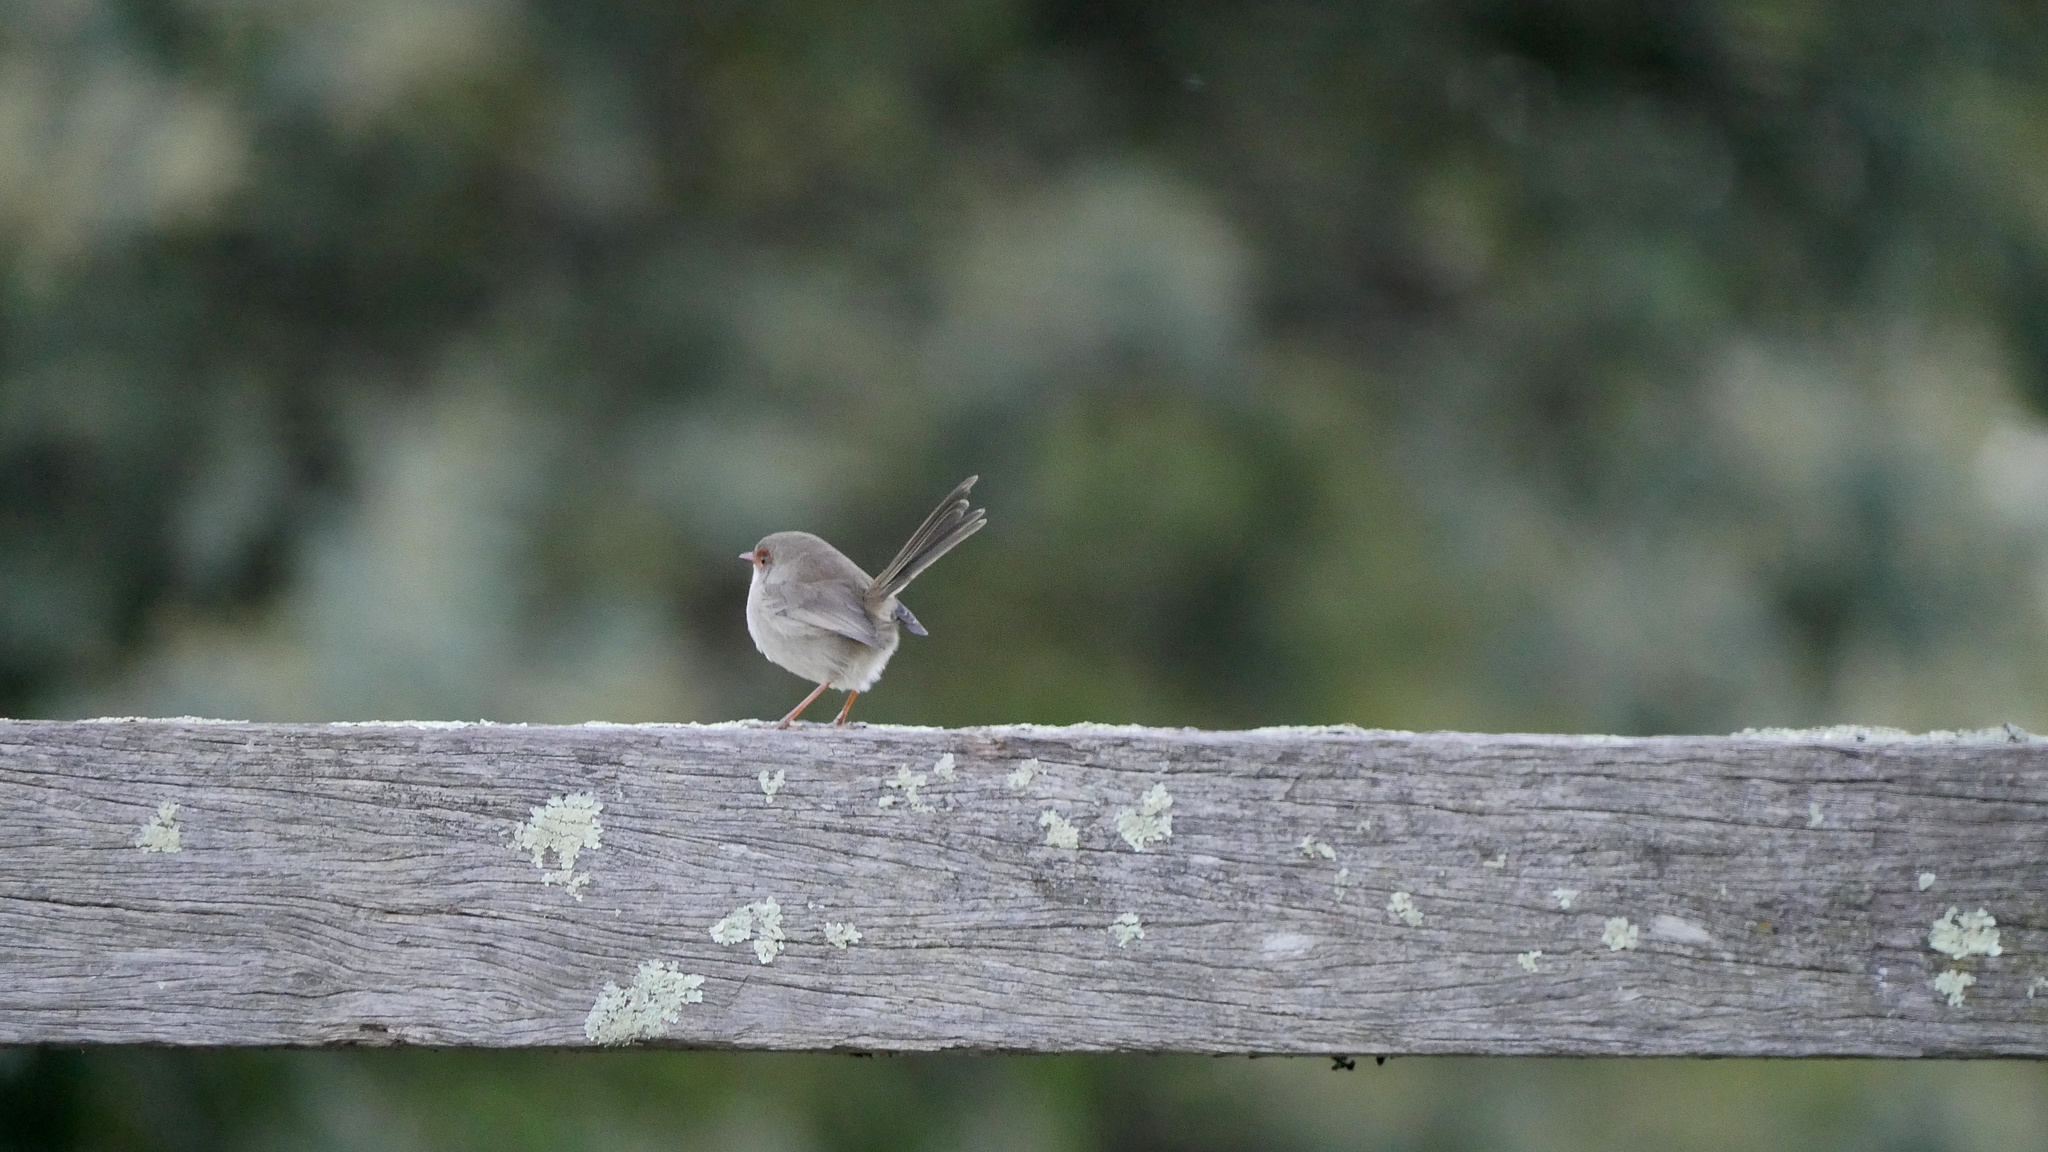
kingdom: Animalia
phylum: Chordata
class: Aves
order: Passeriformes
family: Maluridae
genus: Malurus
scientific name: Malurus cyaneus
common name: Superb fairywren
